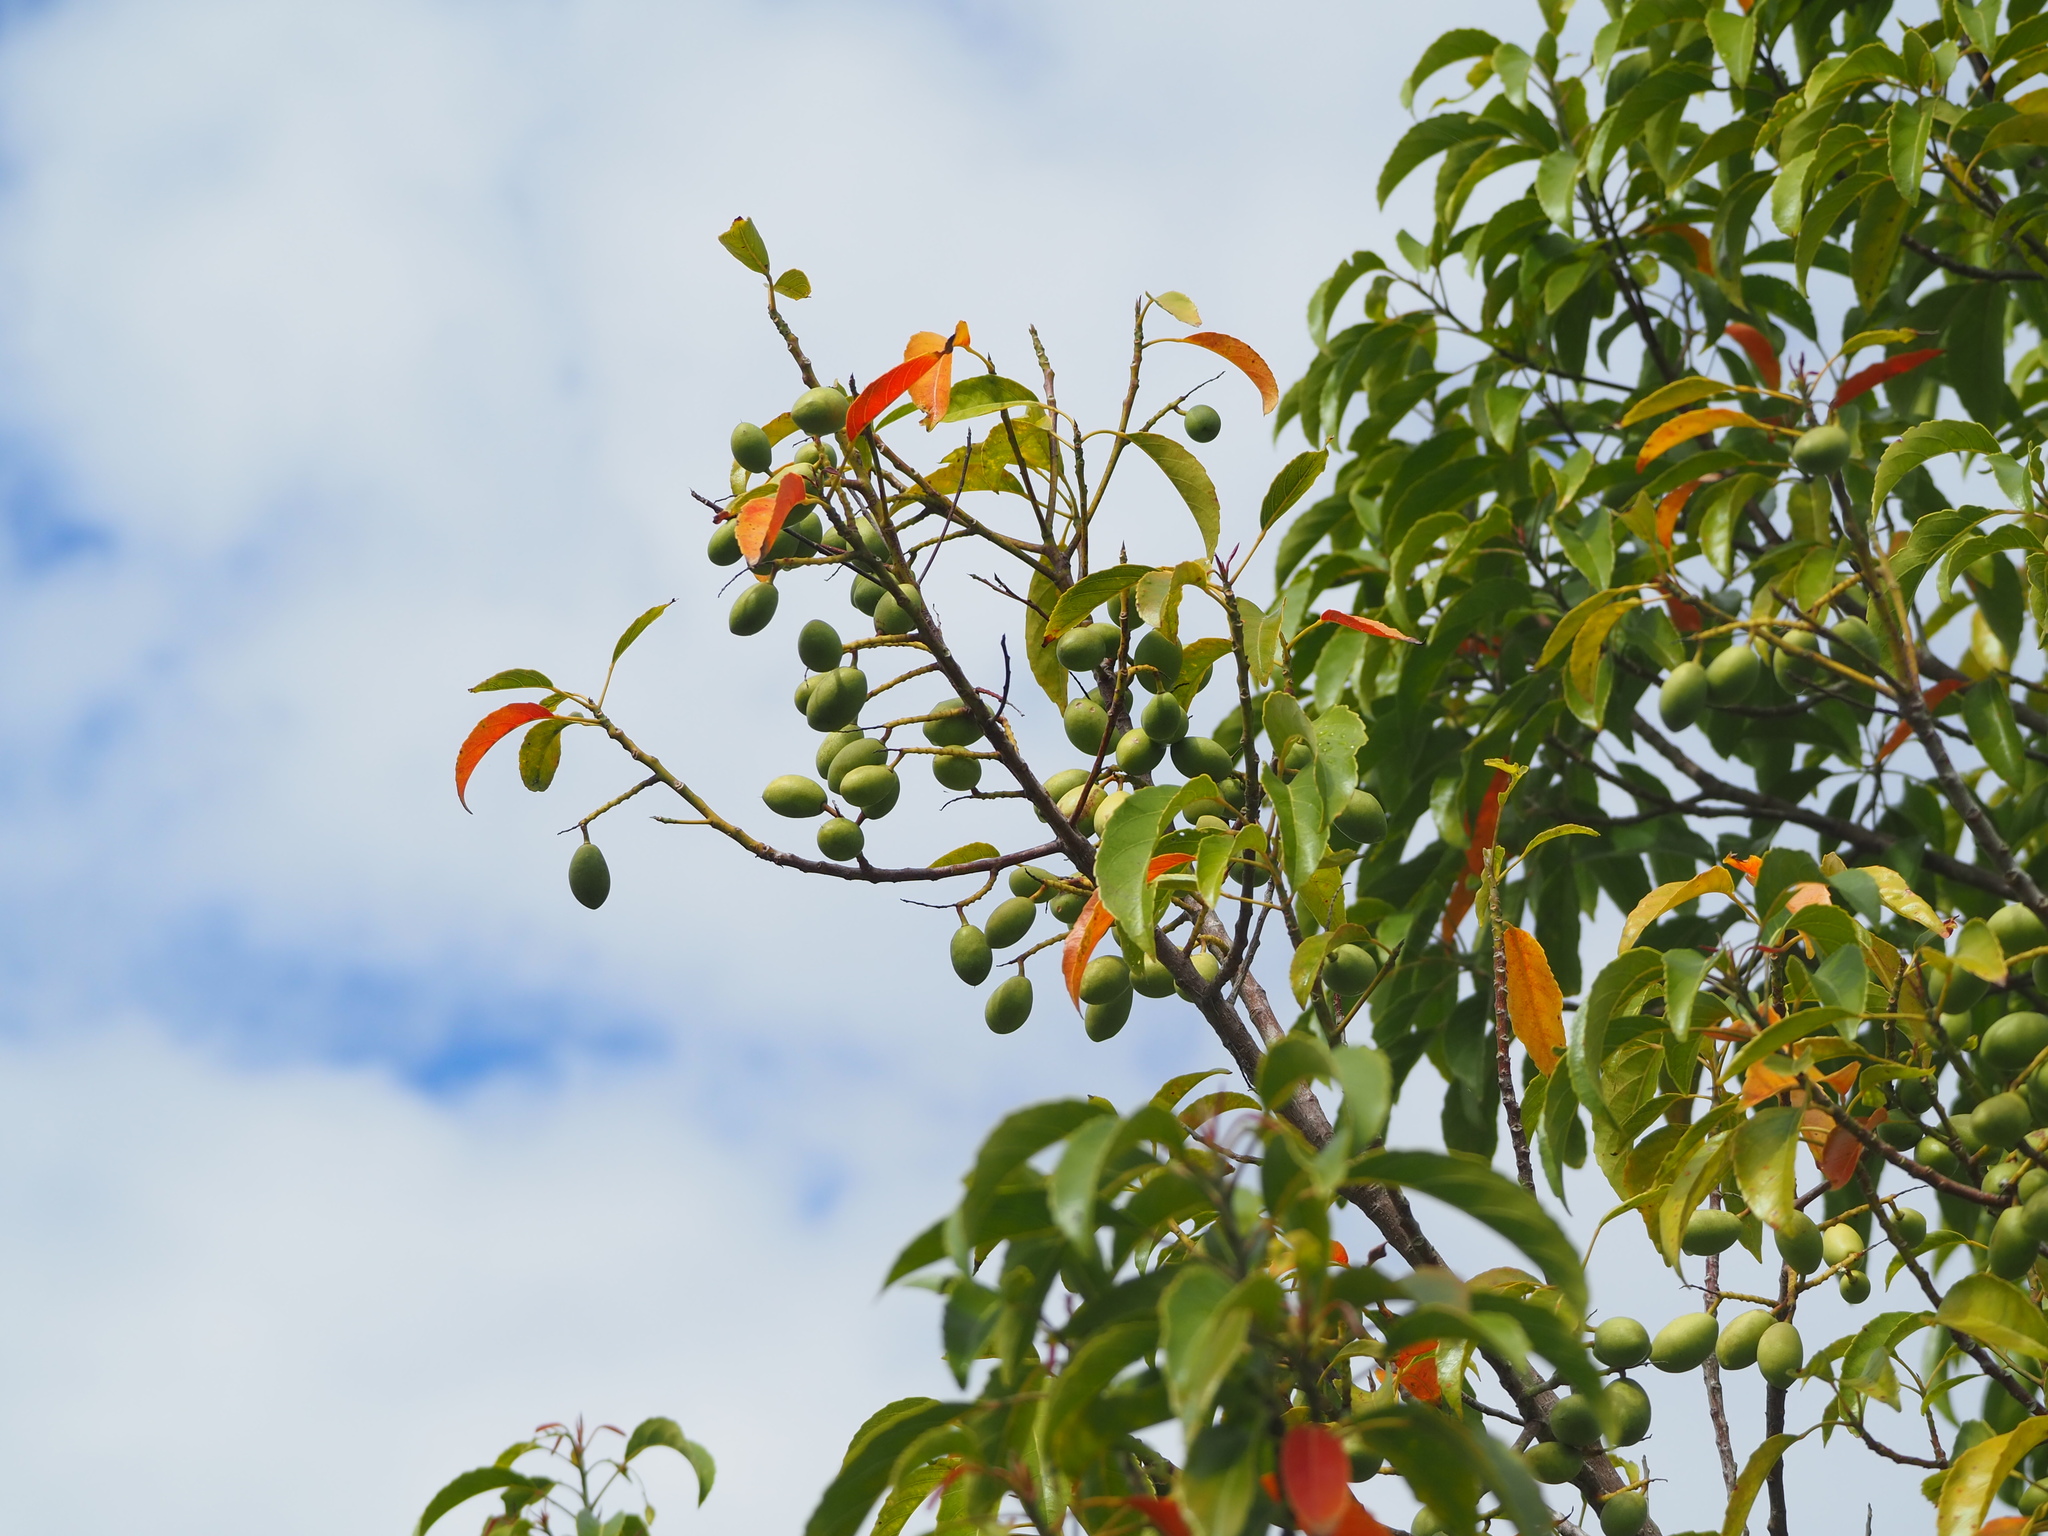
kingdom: Plantae
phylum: Tracheophyta
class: Magnoliopsida
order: Oxalidales
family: Elaeocarpaceae
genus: Elaeocarpus
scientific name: Elaeocarpus serratus
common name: Ceylon-olive
